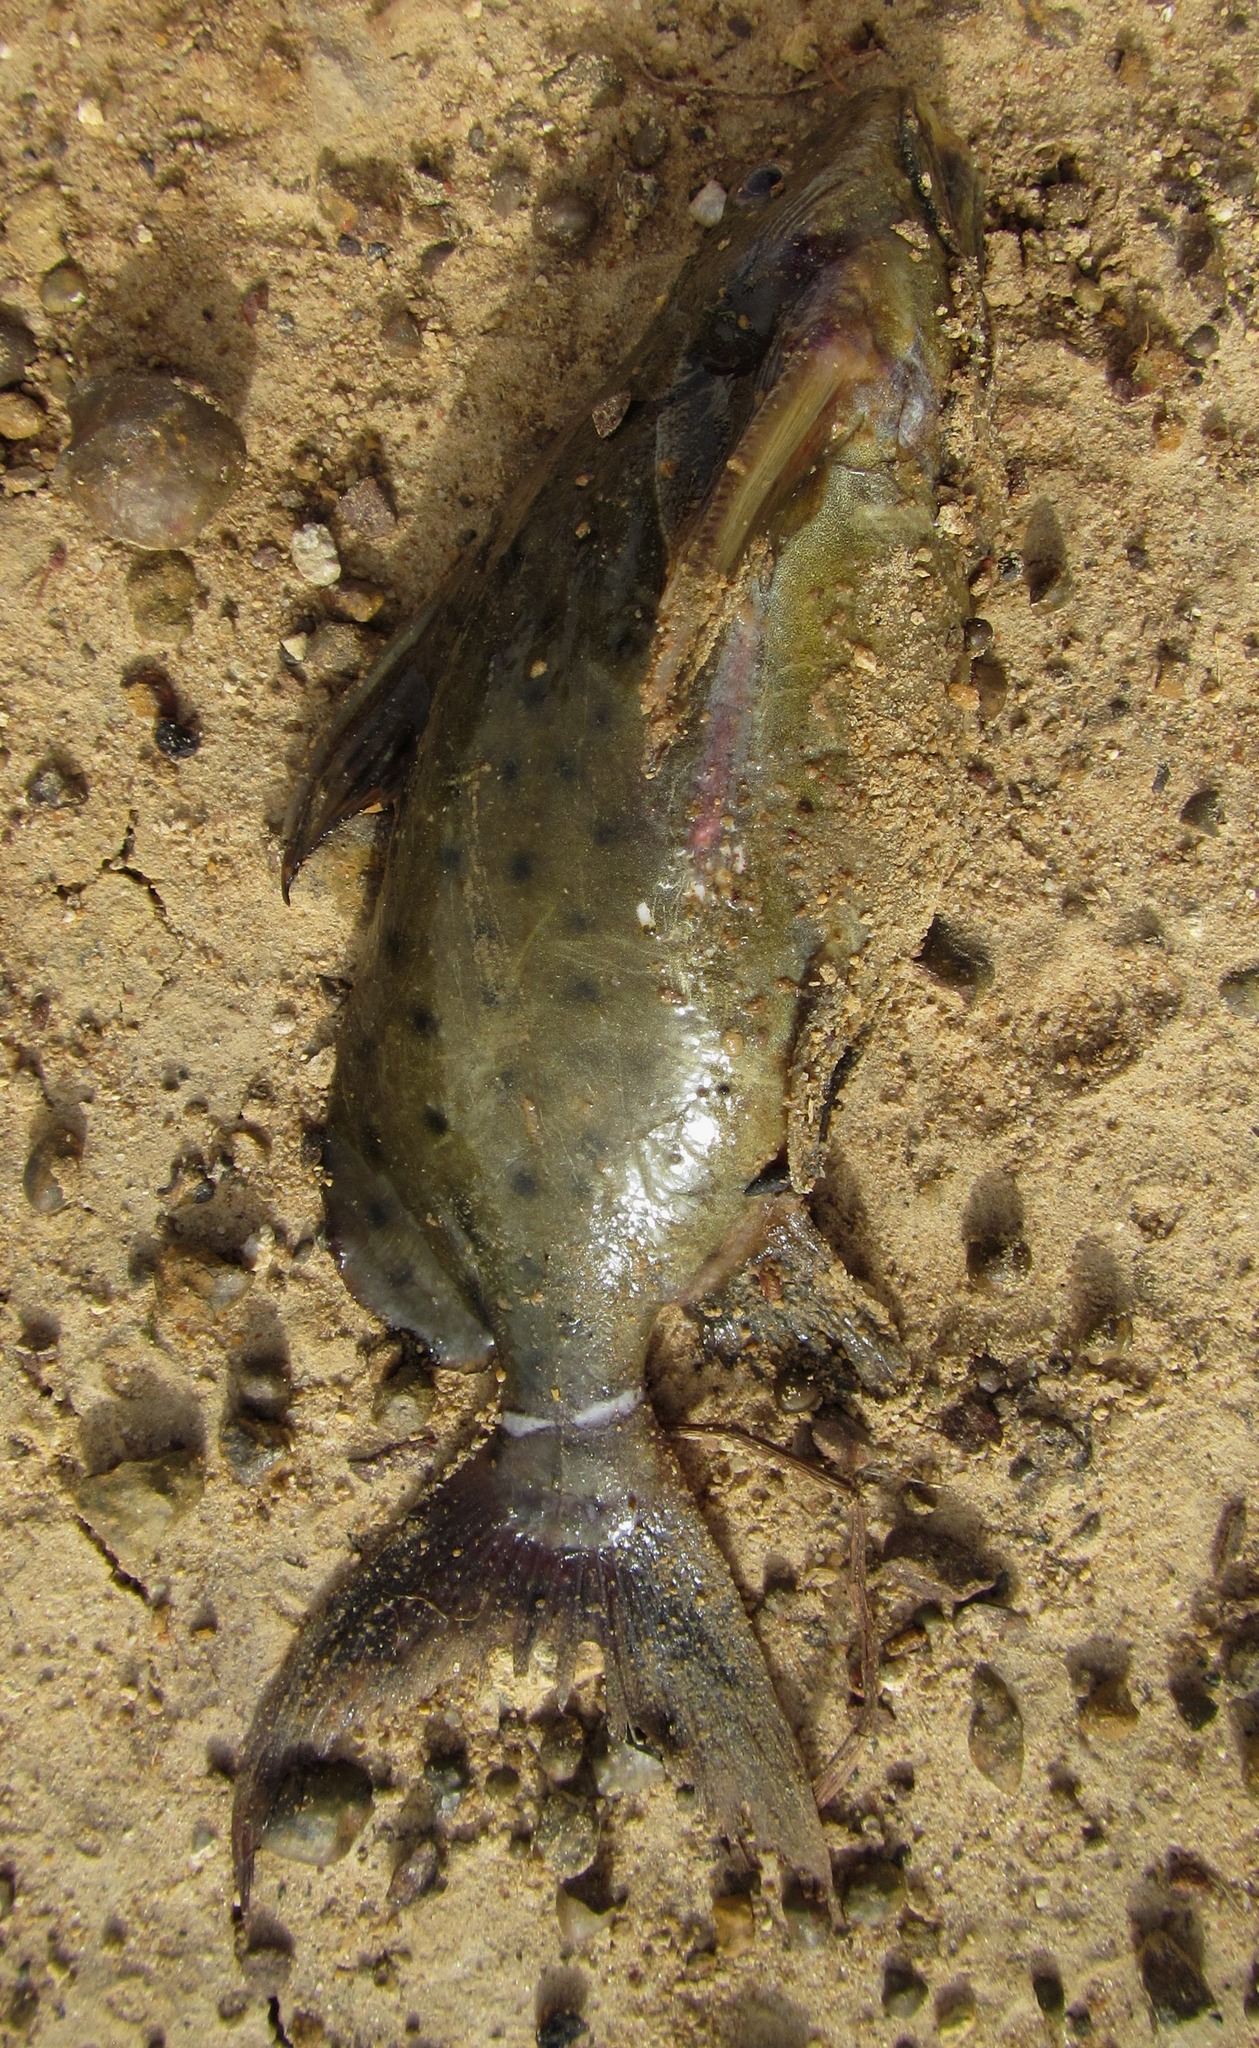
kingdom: Animalia
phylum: Chordata
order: Siluriformes
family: Mochokidae
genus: Synodontis
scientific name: Synodontis ocellifer
